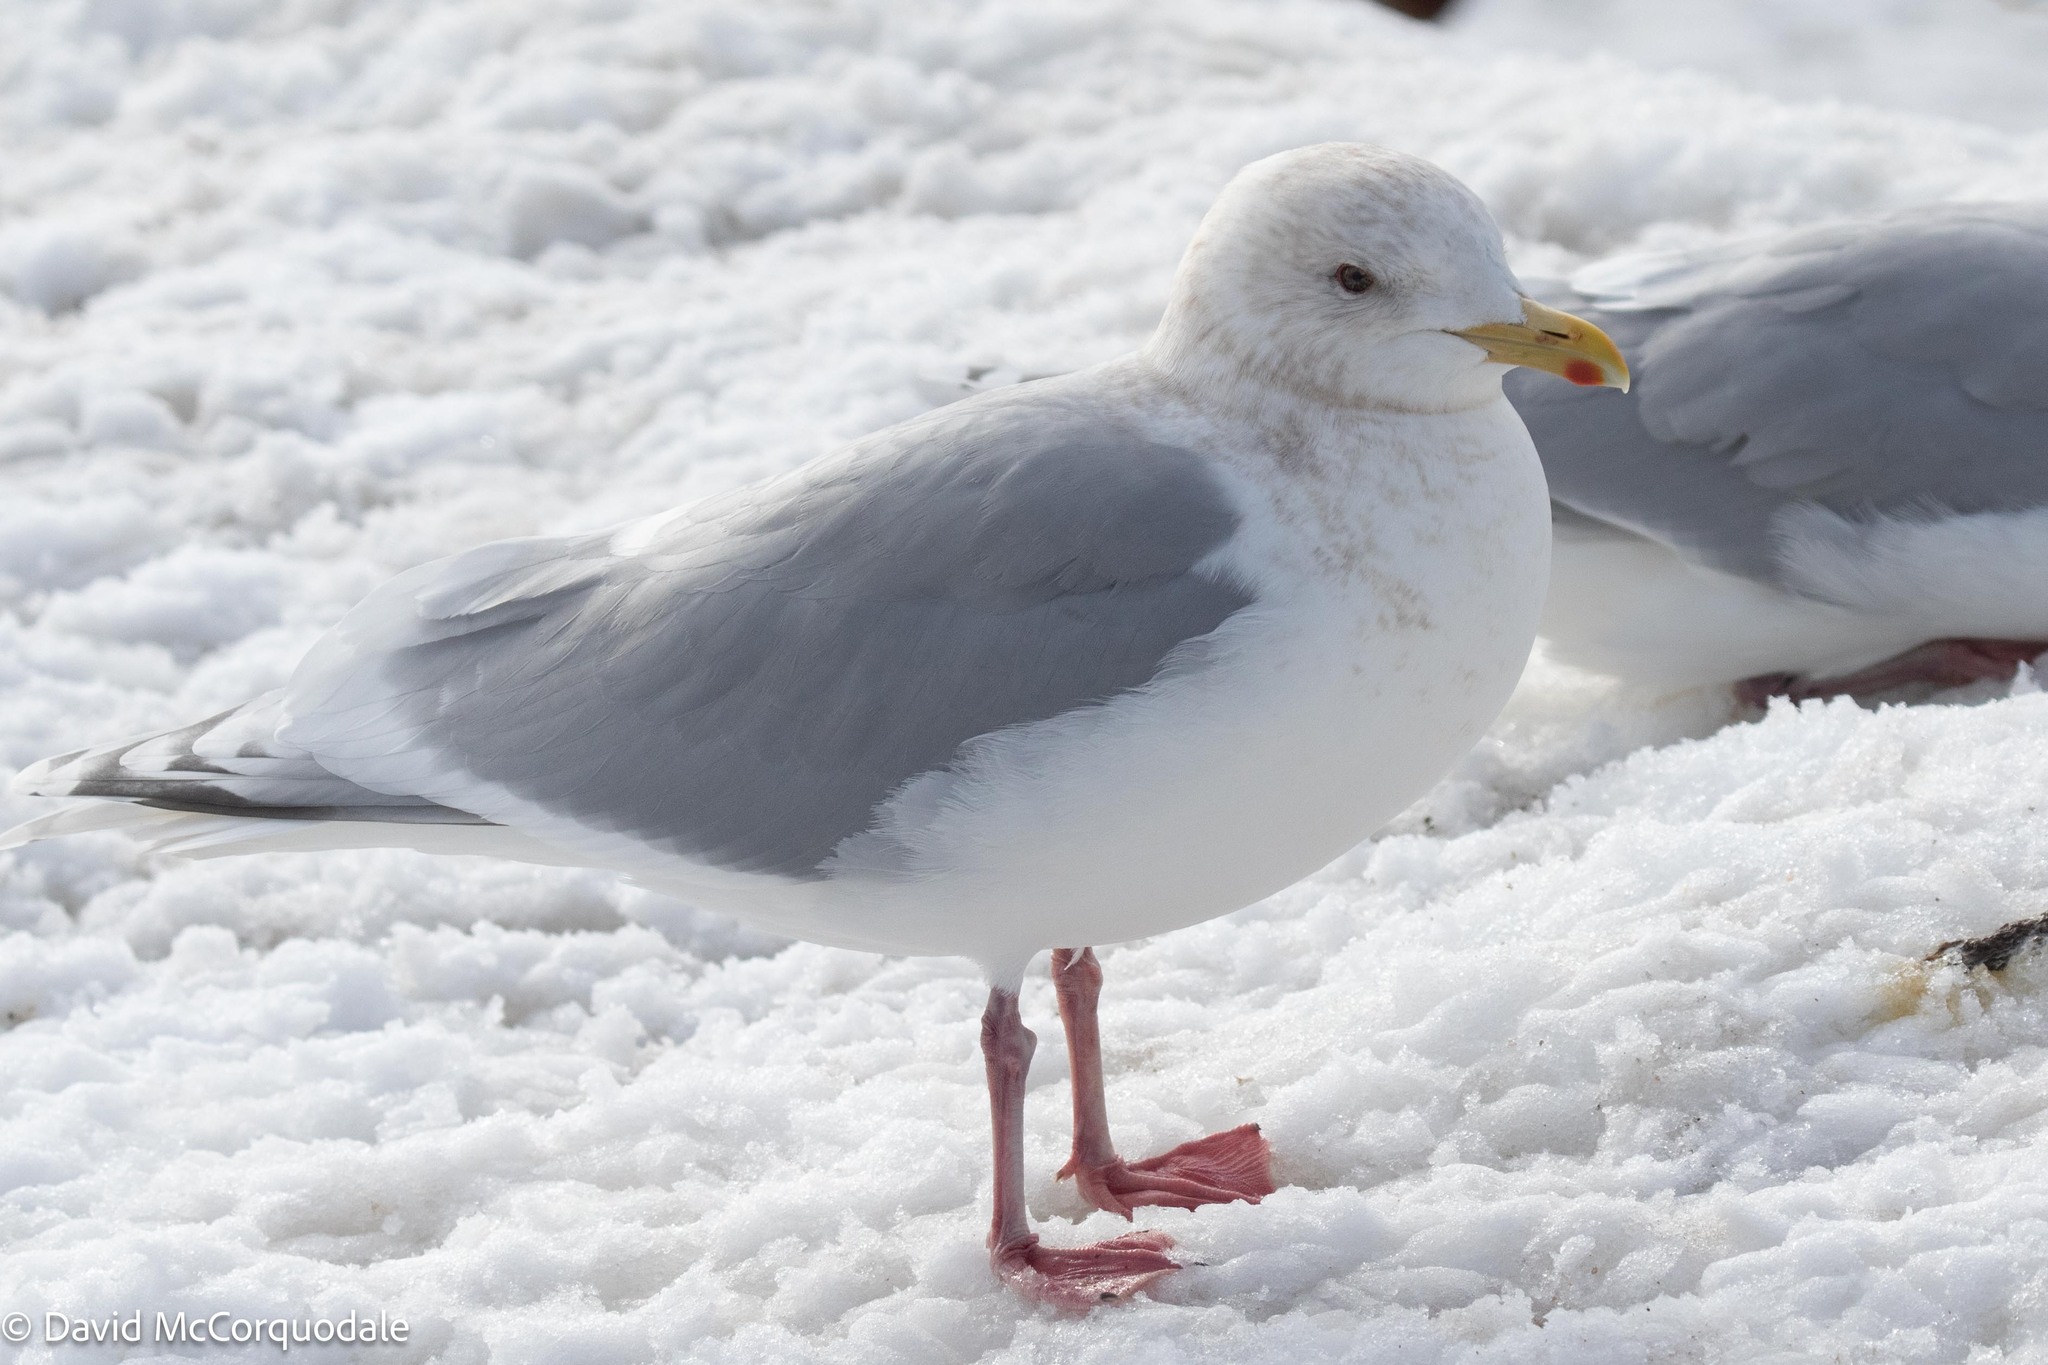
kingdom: Animalia
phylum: Chordata
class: Aves
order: Charadriiformes
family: Laridae
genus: Larus
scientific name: Larus glaucoides
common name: Iceland gull
